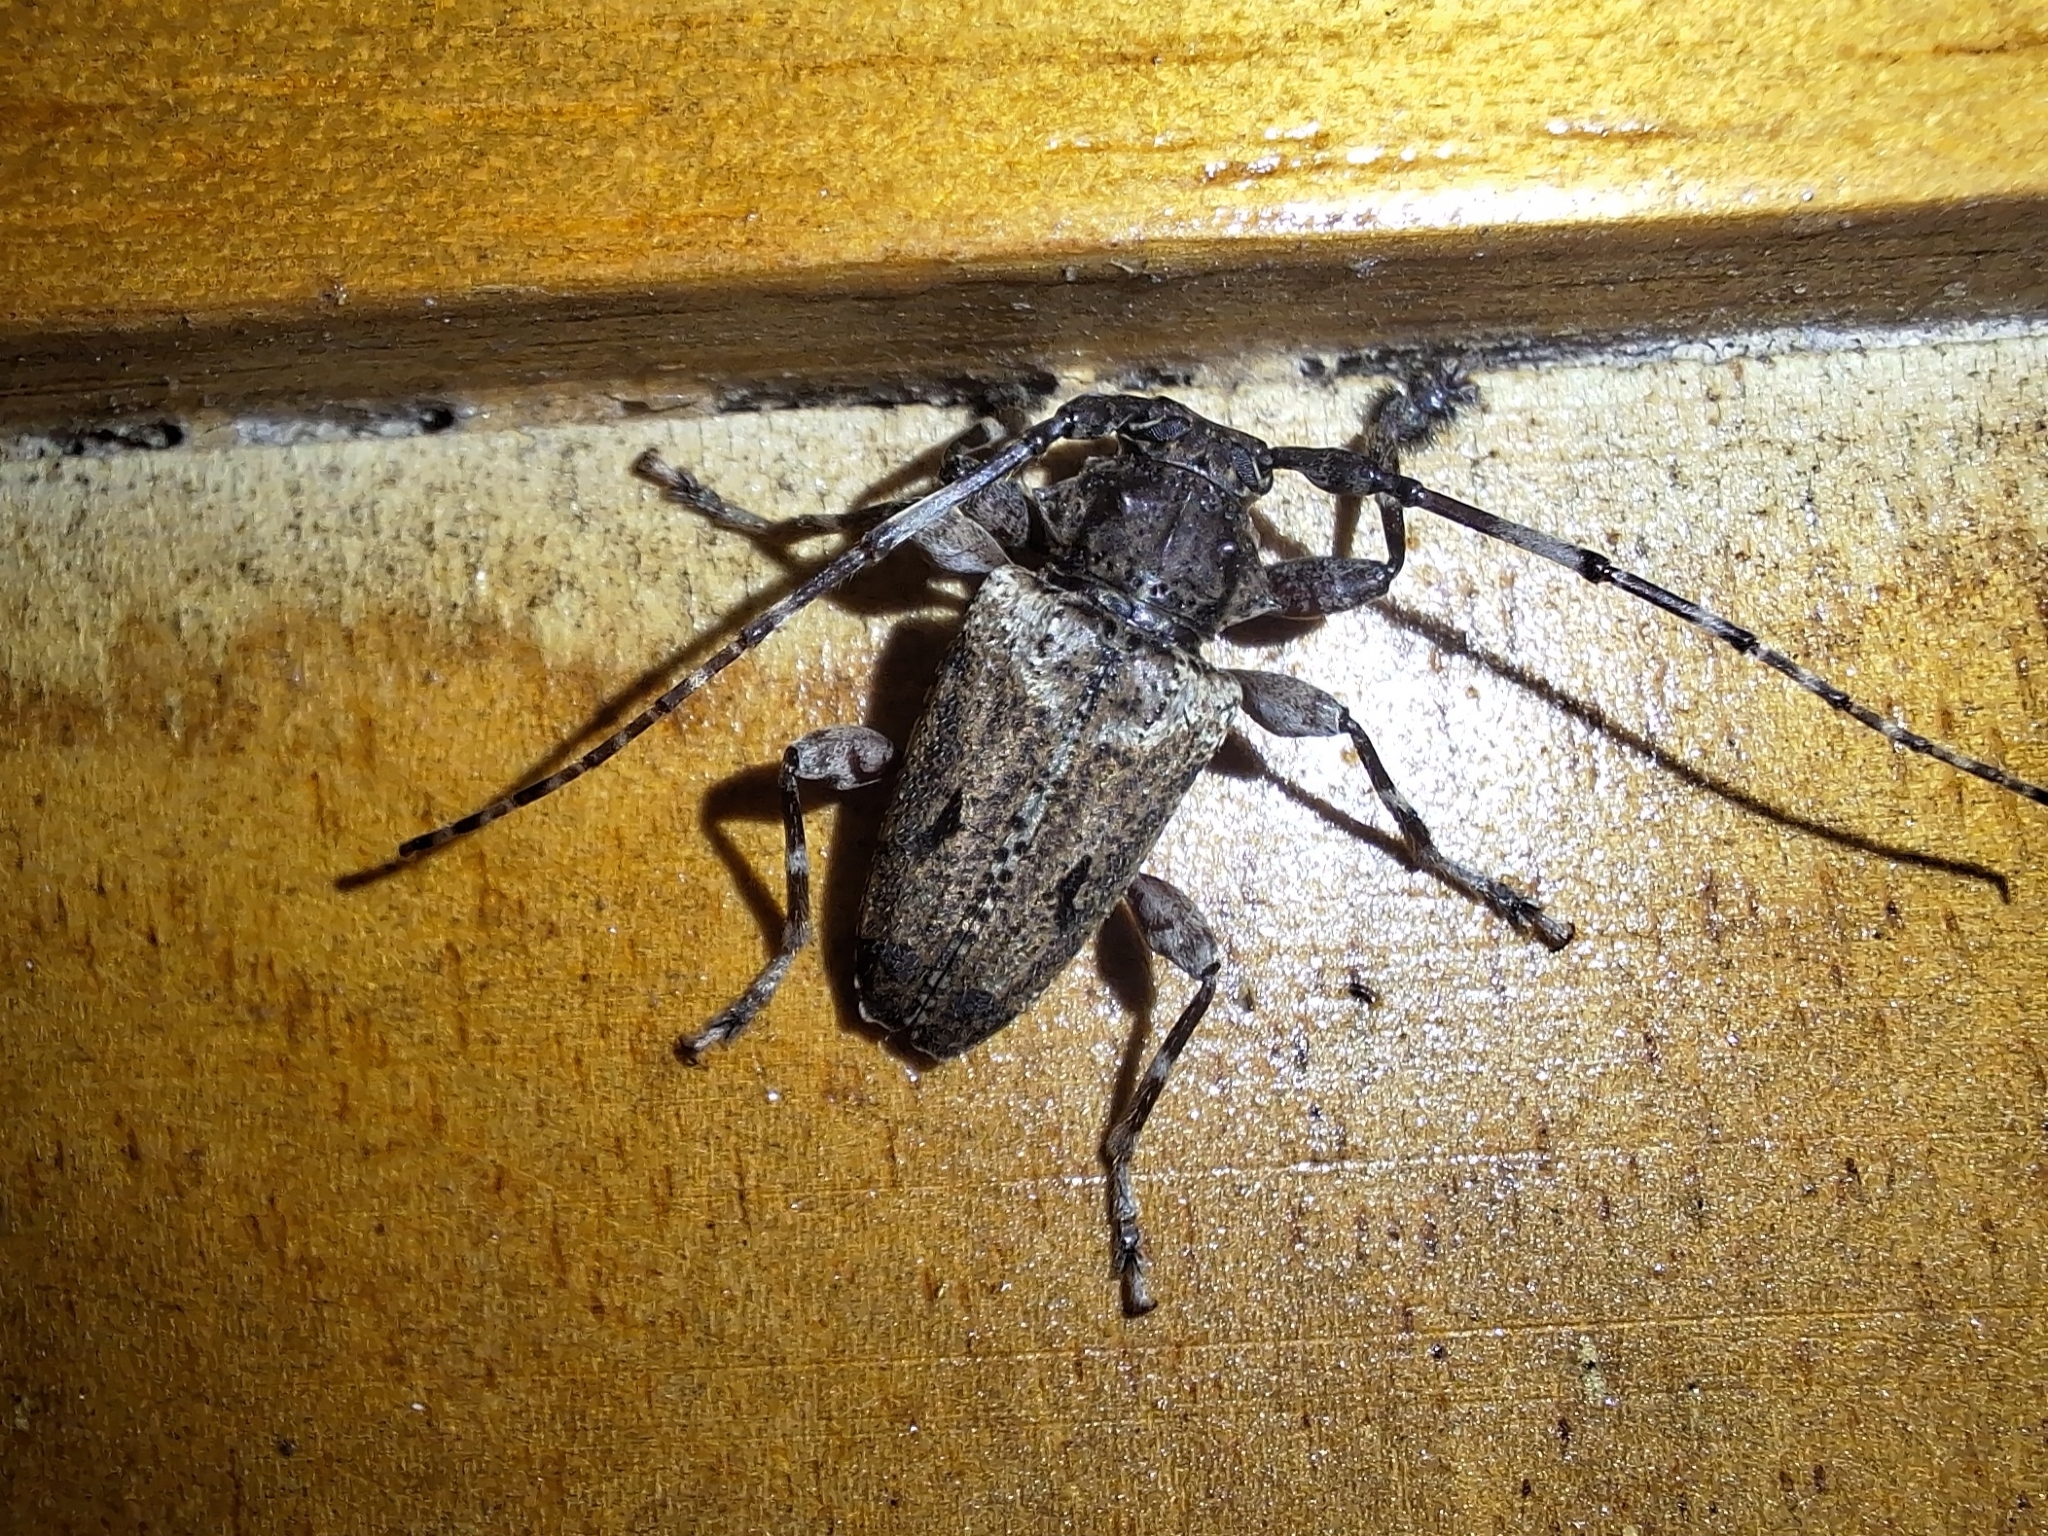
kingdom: Animalia
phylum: Arthropoda
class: Insecta
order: Coleoptera
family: Cerambycidae
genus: Aegomorphus
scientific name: Aegomorphus
